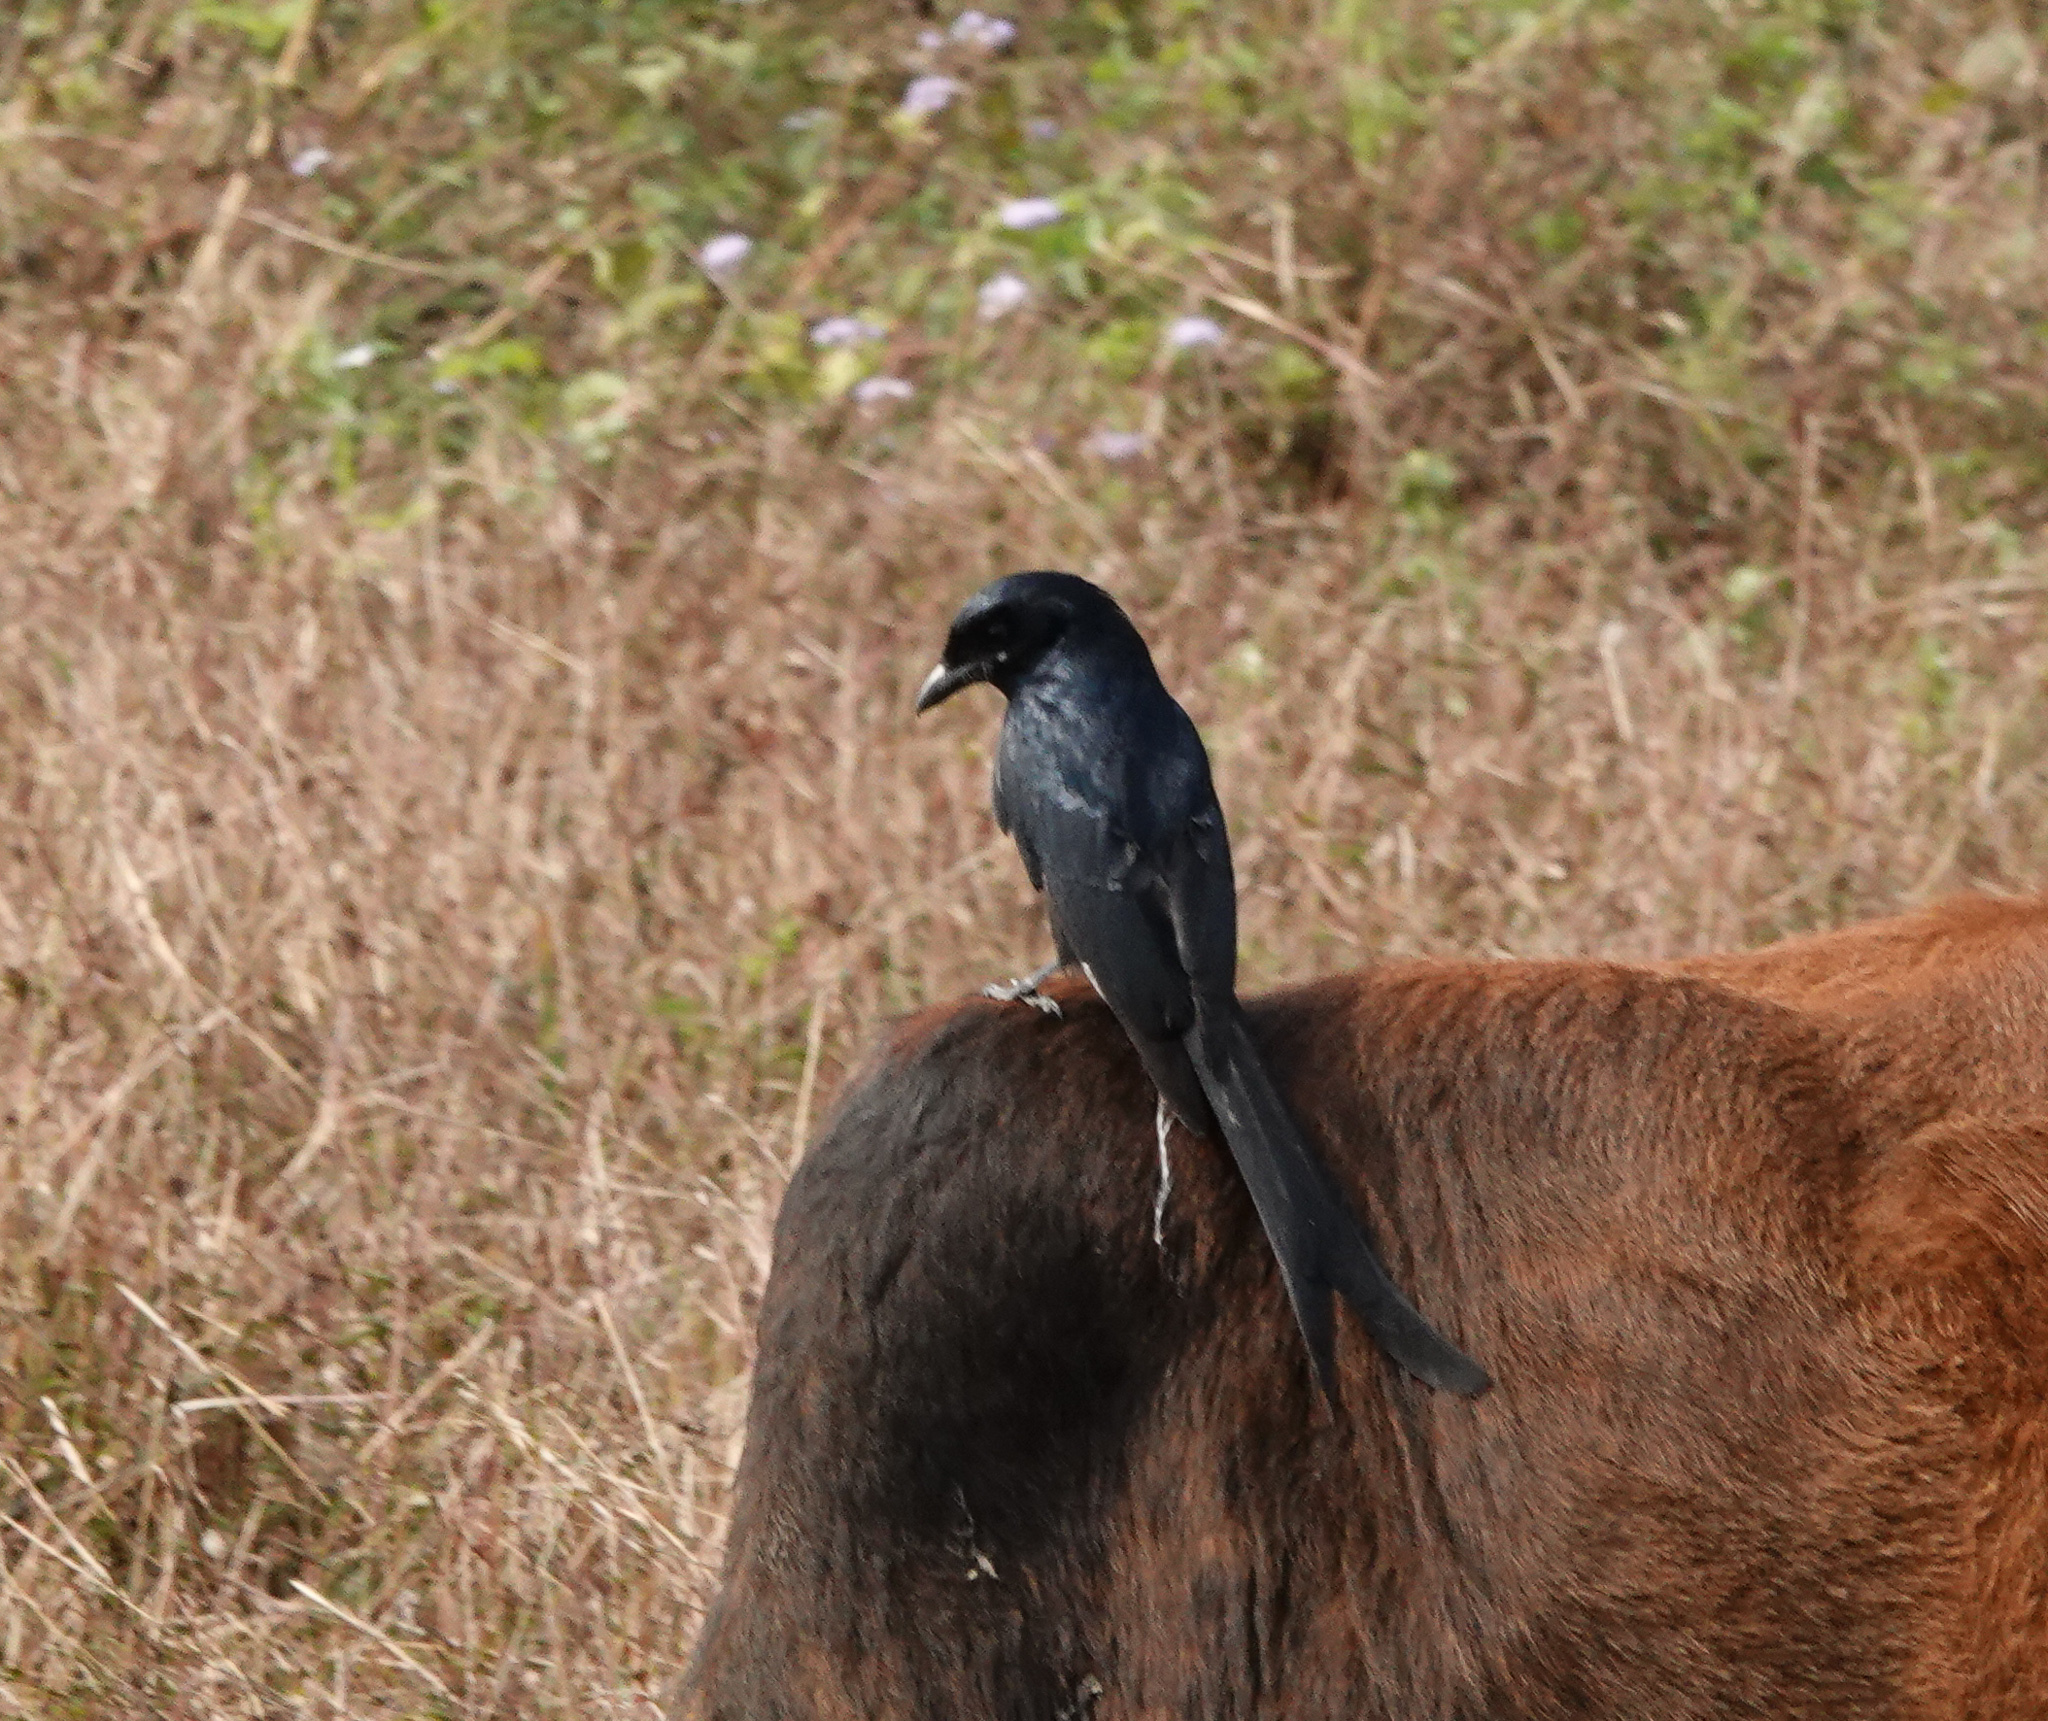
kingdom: Animalia
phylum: Chordata
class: Aves
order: Passeriformes
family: Dicruridae
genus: Dicrurus
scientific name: Dicrurus macrocercus
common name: Black drongo
